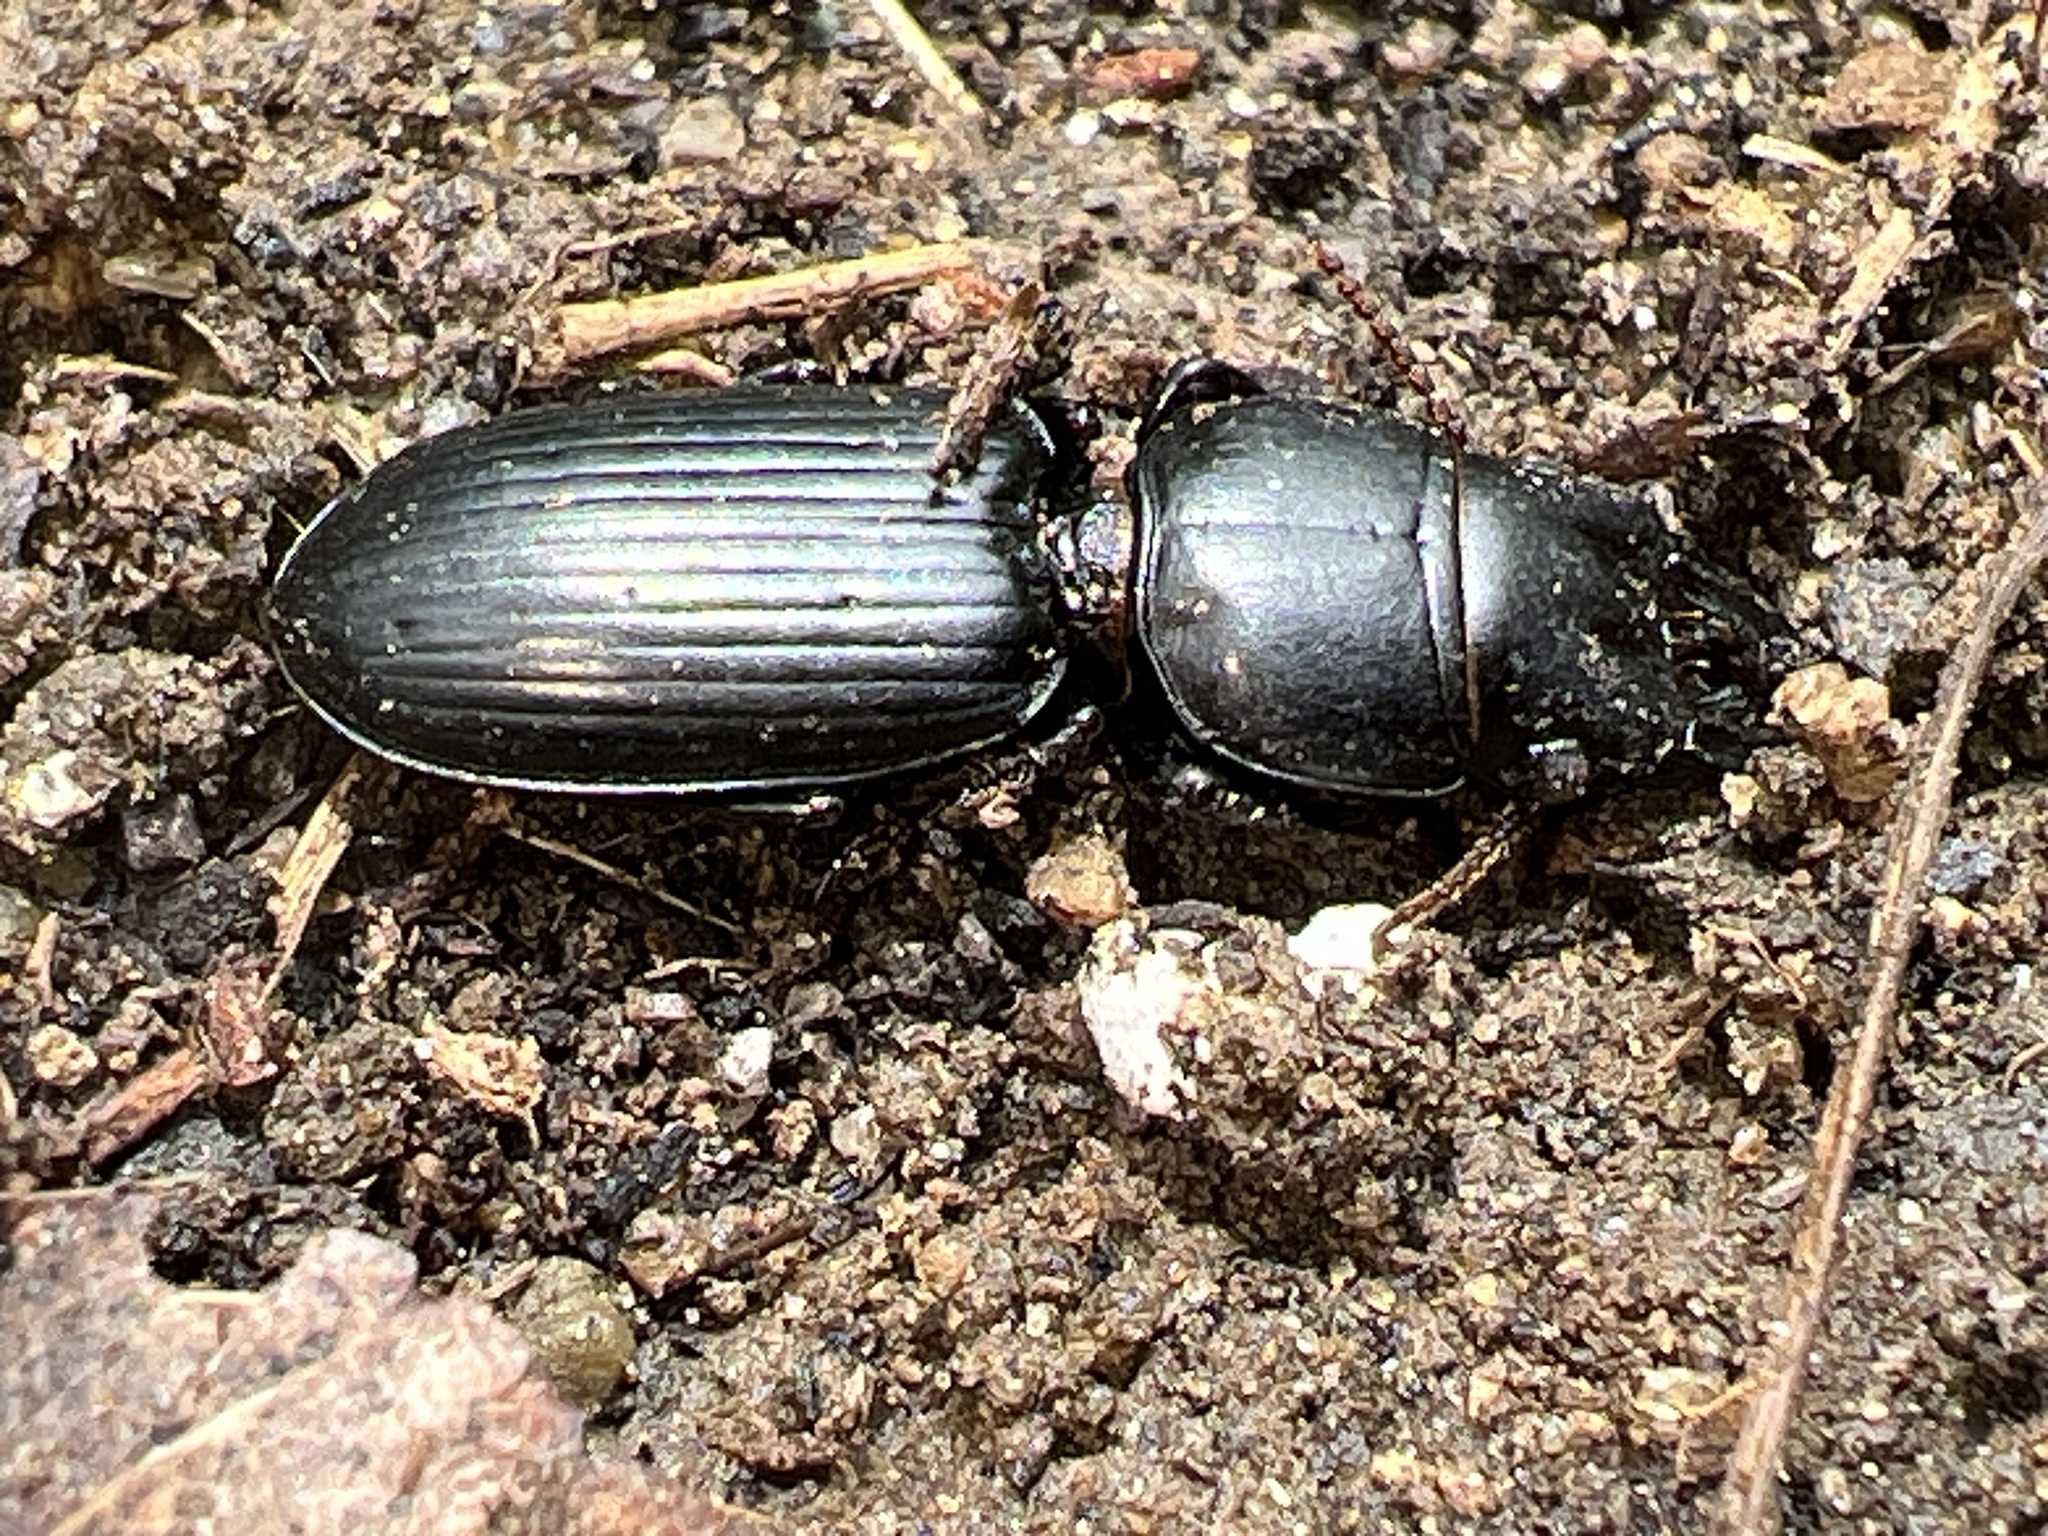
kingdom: Animalia
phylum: Arthropoda
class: Insecta
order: Coleoptera
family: Carabidae
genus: Scarites
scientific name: Scarites subterraneus
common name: Big-headed ground beetle
